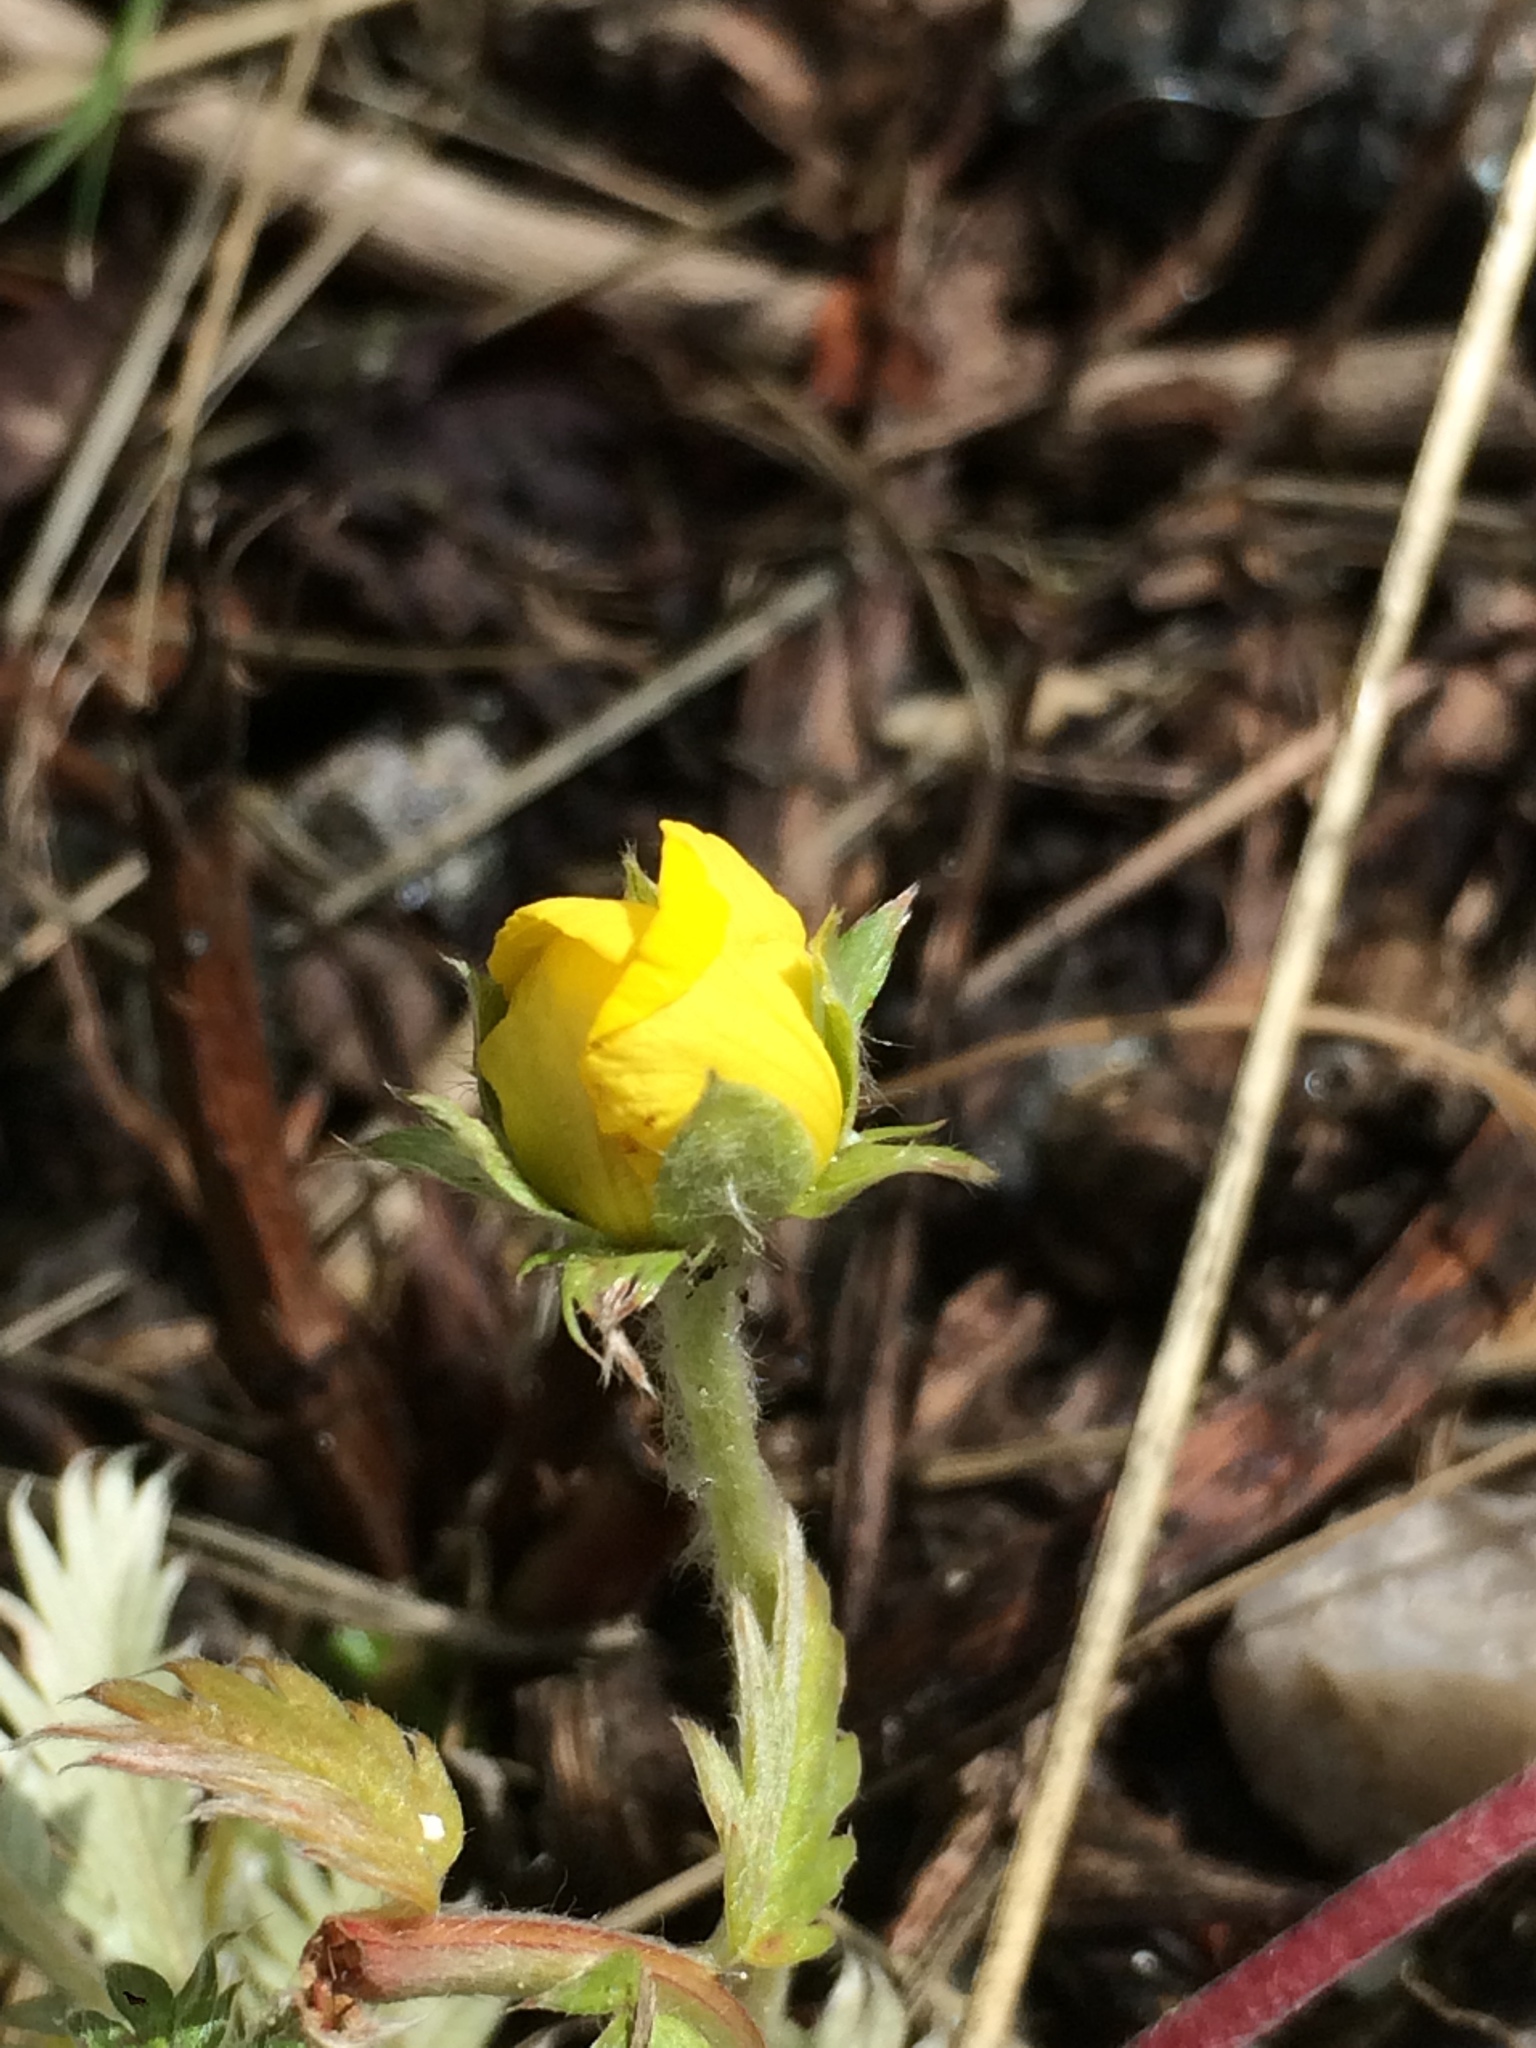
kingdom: Plantae
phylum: Tracheophyta
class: Magnoliopsida
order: Rosales
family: Rosaceae
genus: Argentina
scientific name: Argentina anserina
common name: Common silverweed
